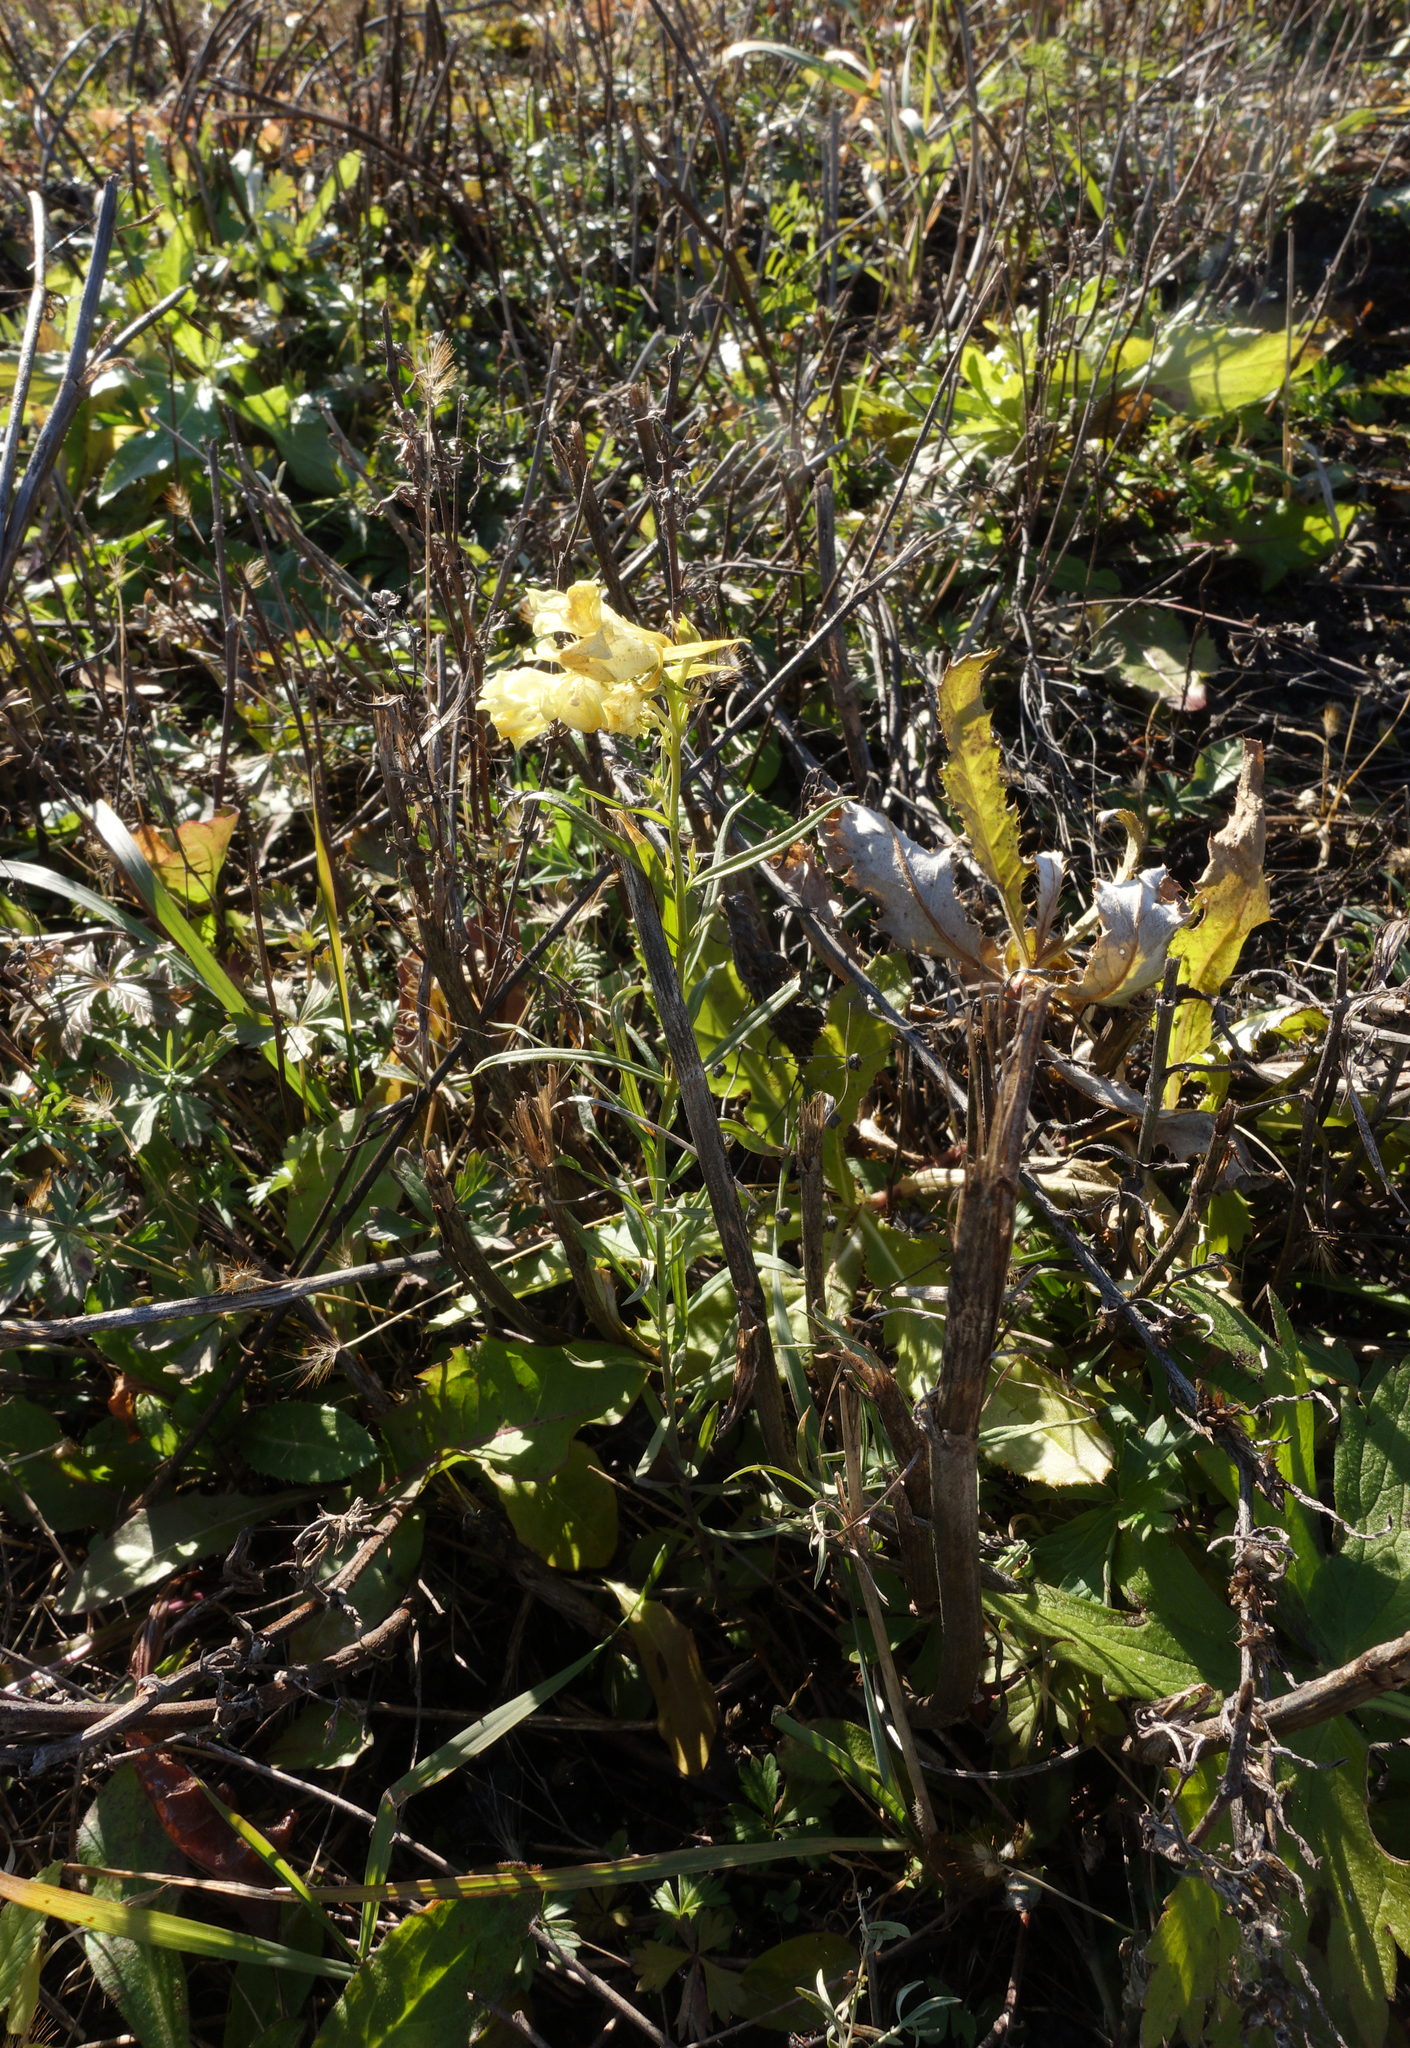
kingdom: Plantae
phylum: Tracheophyta
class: Magnoliopsida
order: Lamiales
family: Plantaginaceae
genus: Linaria
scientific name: Linaria vulgaris
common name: Butter and eggs
